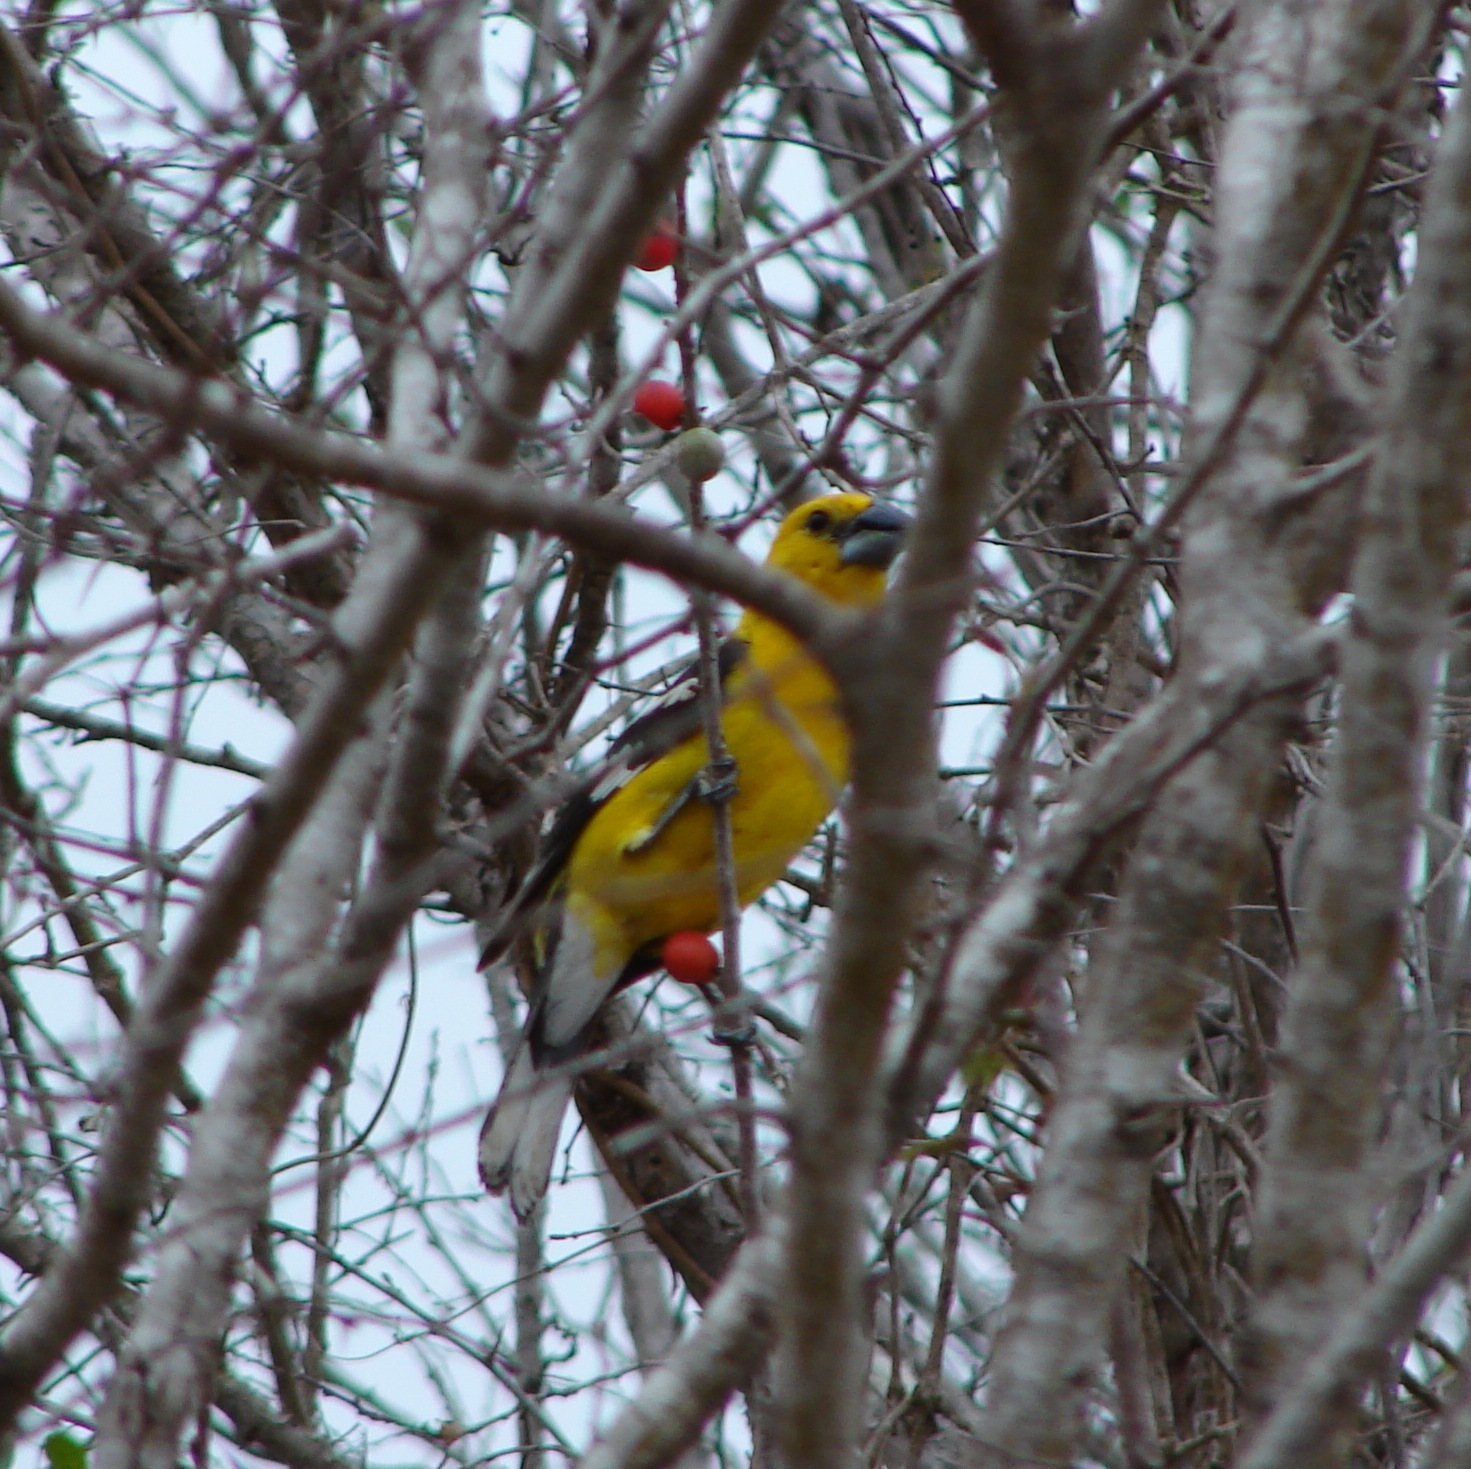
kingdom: Animalia
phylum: Chordata
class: Aves
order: Passeriformes
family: Cardinalidae
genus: Pheucticus
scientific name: Pheucticus chrysopeplus
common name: Yellow grosbeak
